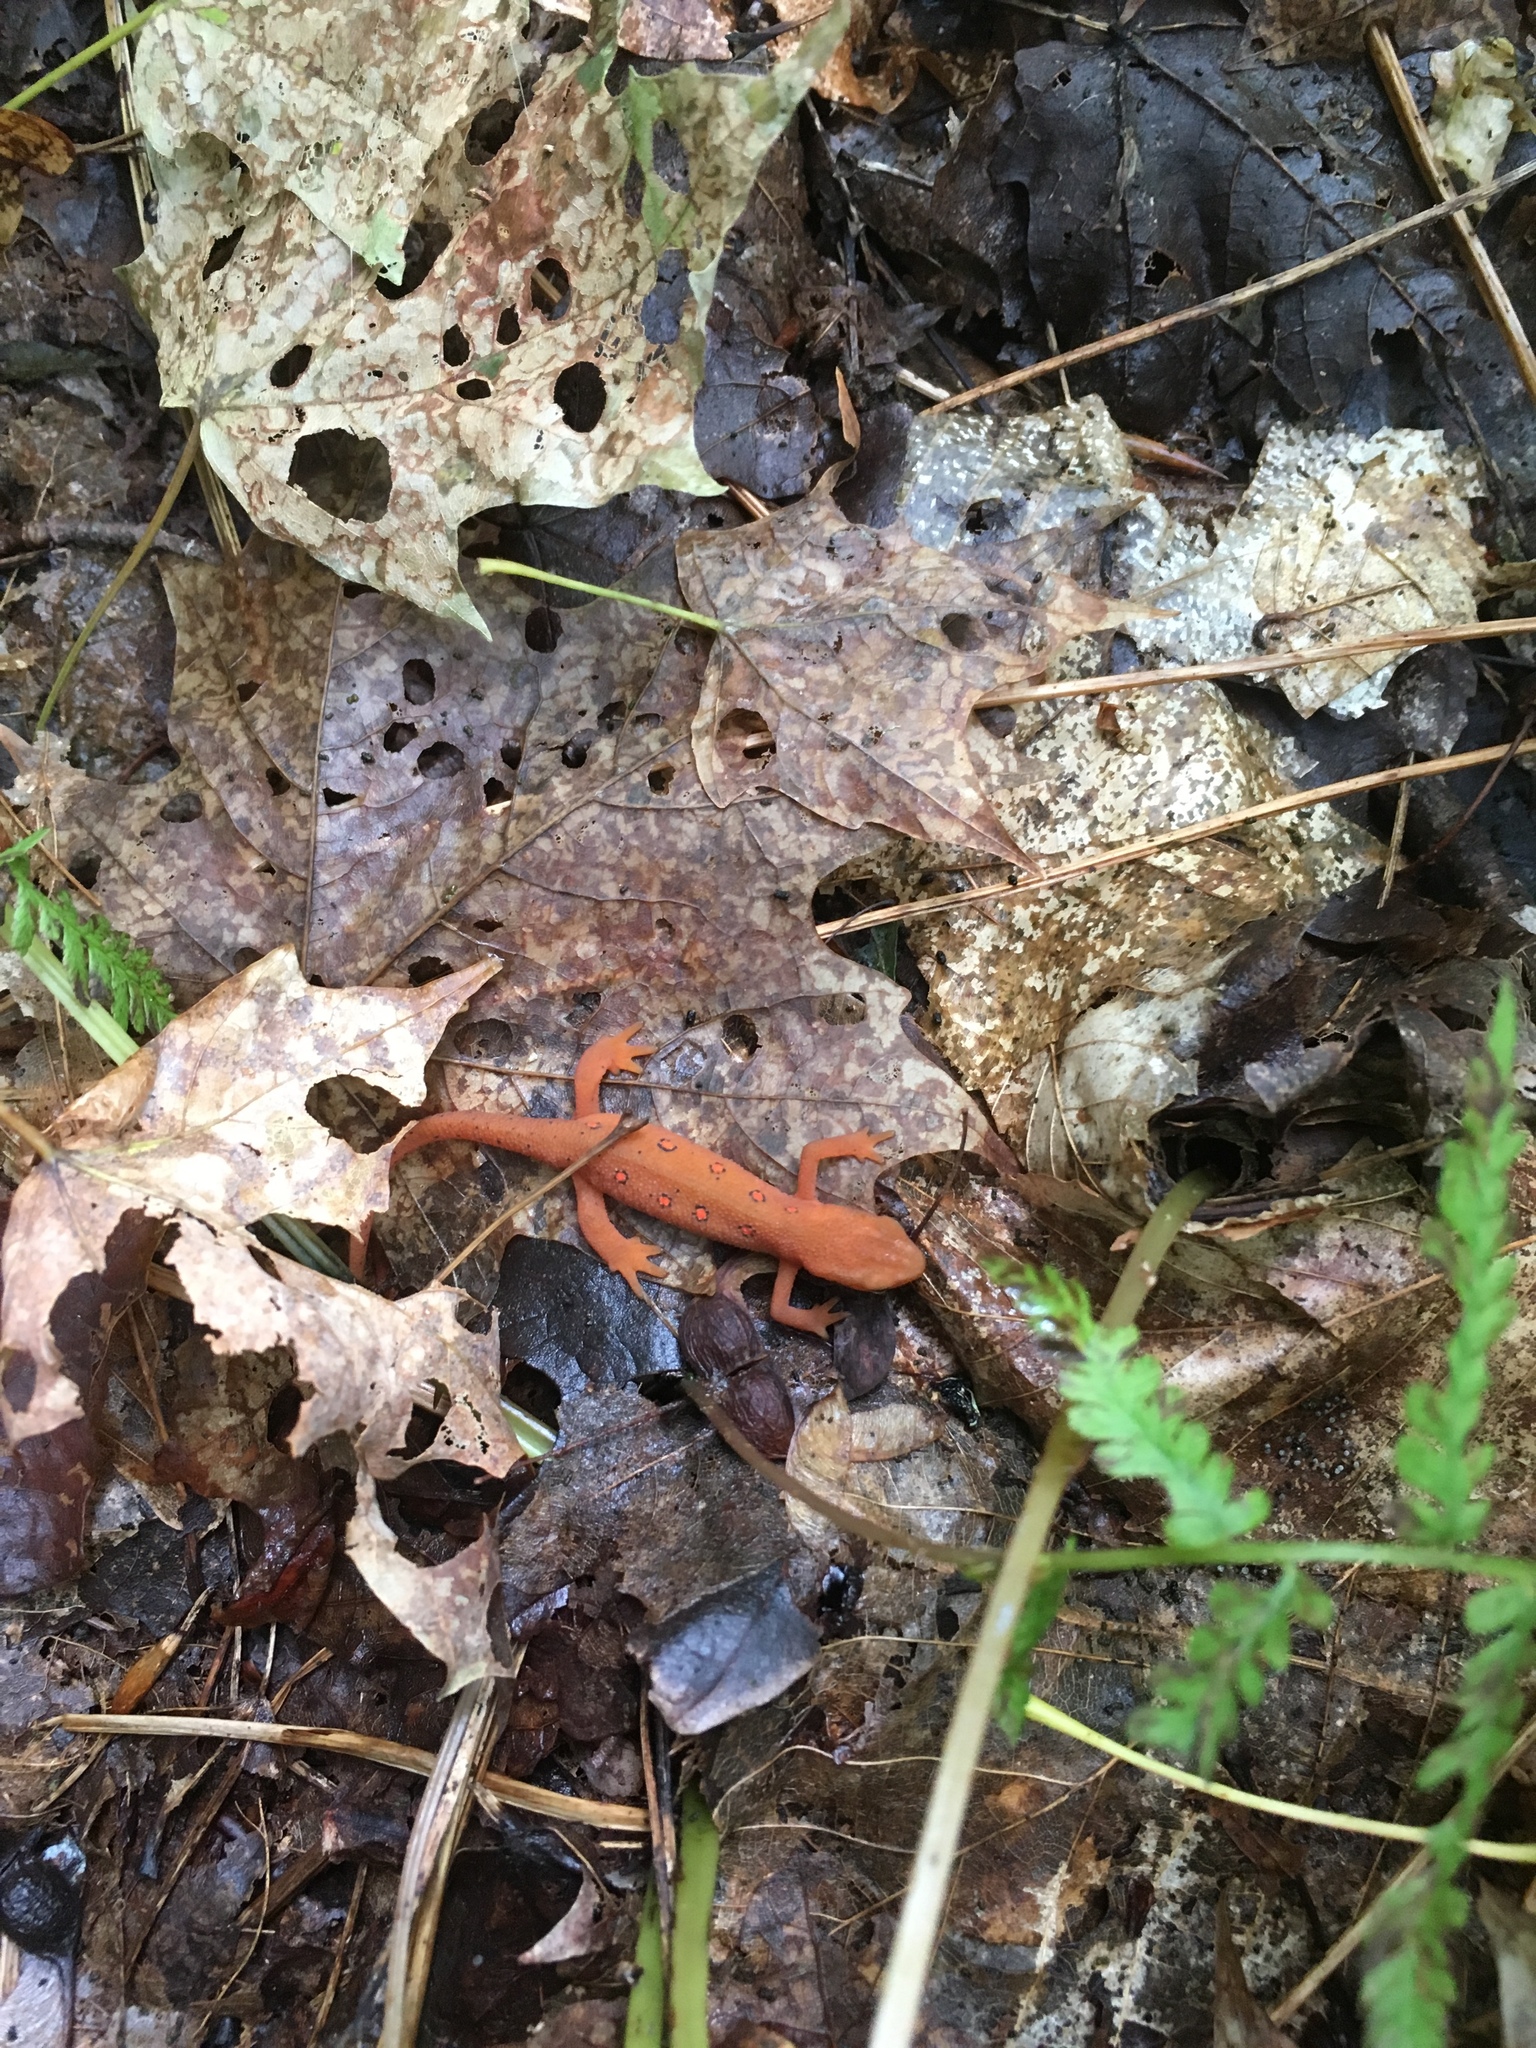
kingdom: Animalia
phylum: Chordata
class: Amphibia
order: Caudata
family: Salamandridae
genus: Notophthalmus
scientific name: Notophthalmus viridescens
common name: Eastern newt
